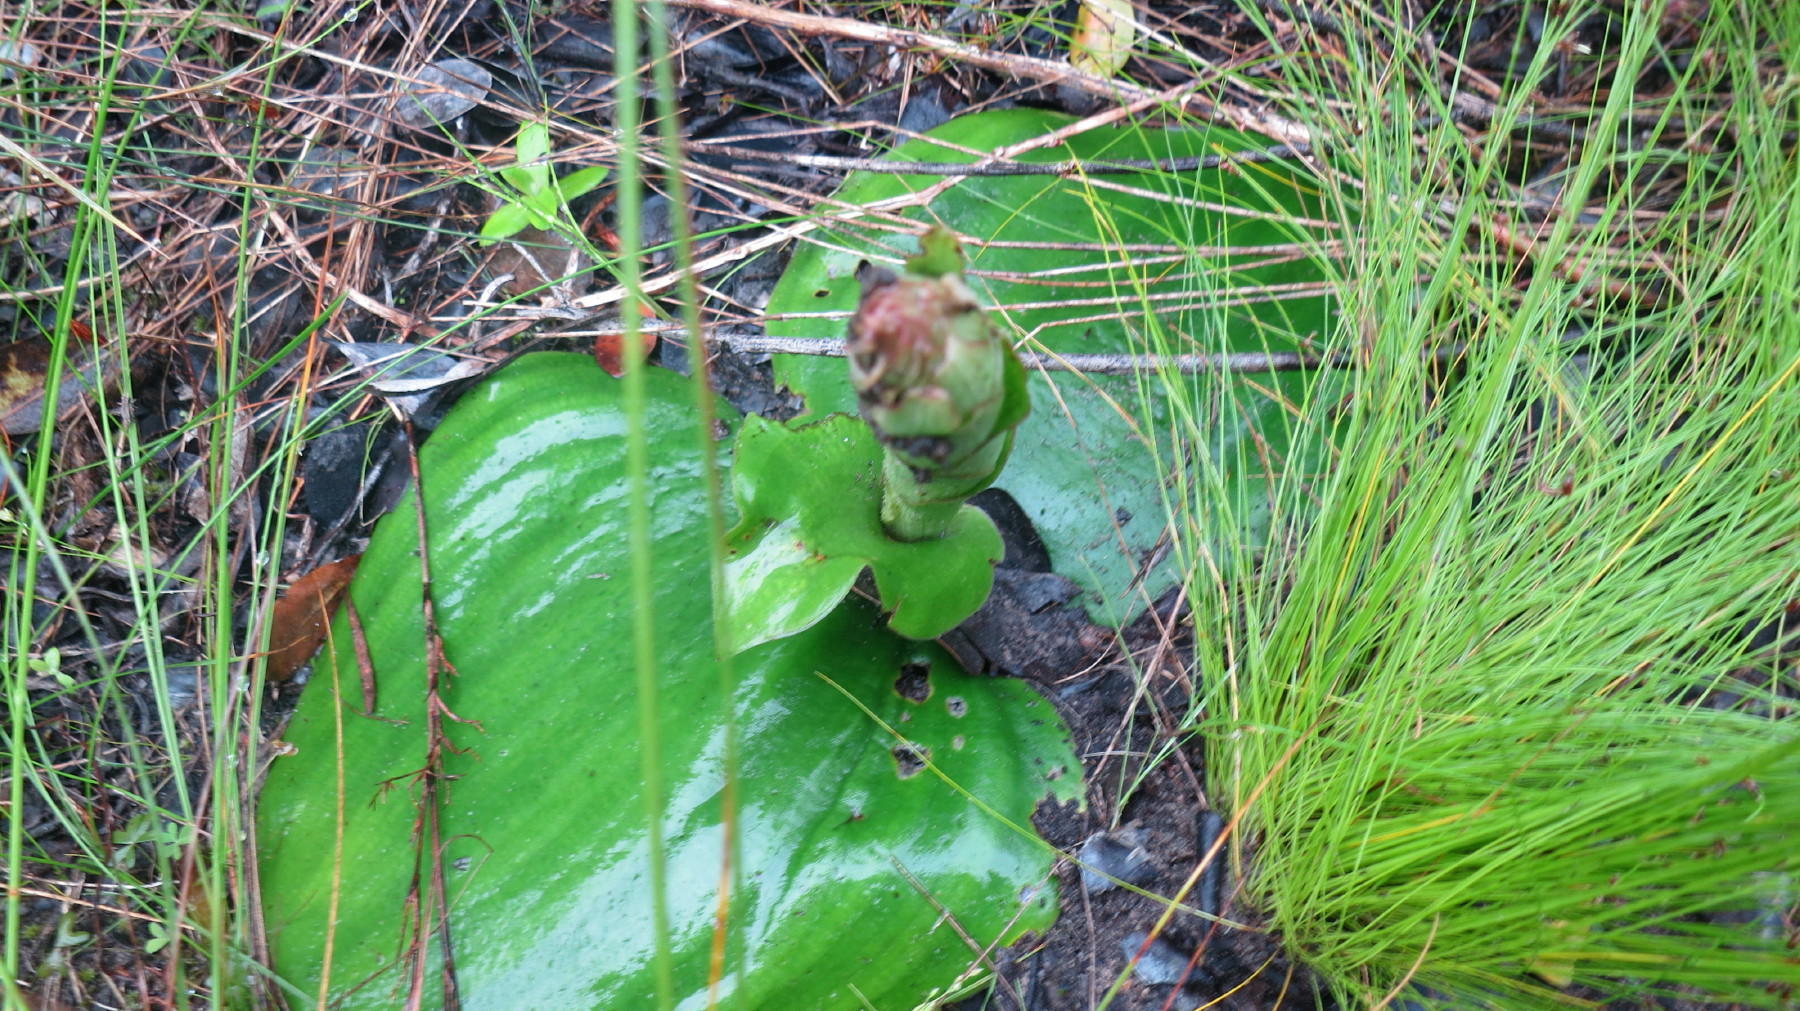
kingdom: Plantae
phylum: Tracheophyta
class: Liliopsida
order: Asparagales
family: Orchidaceae
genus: Satyrium
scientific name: Satyrium princeps
